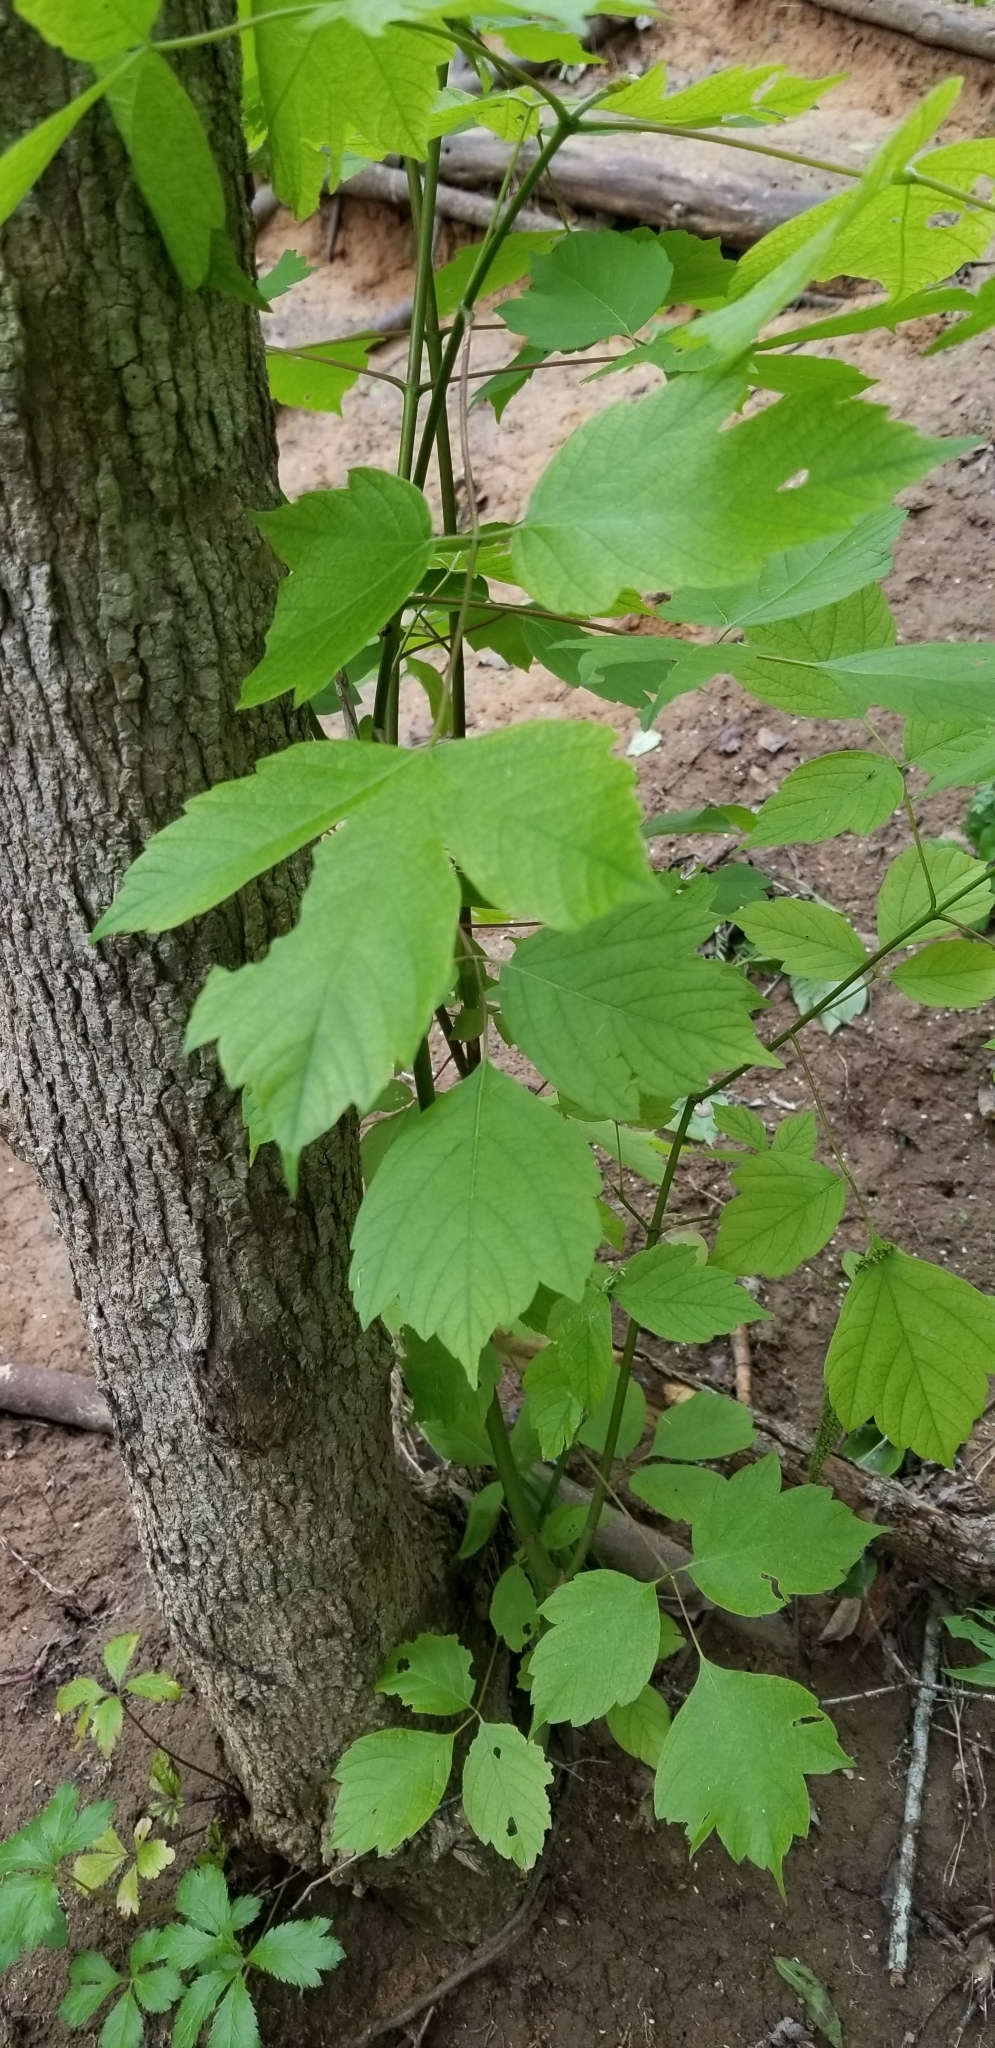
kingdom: Plantae
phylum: Tracheophyta
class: Magnoliopsida
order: Sapindales
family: Sapindaceae
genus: Acer
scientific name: Acer negundo
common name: Ashleaf maple
